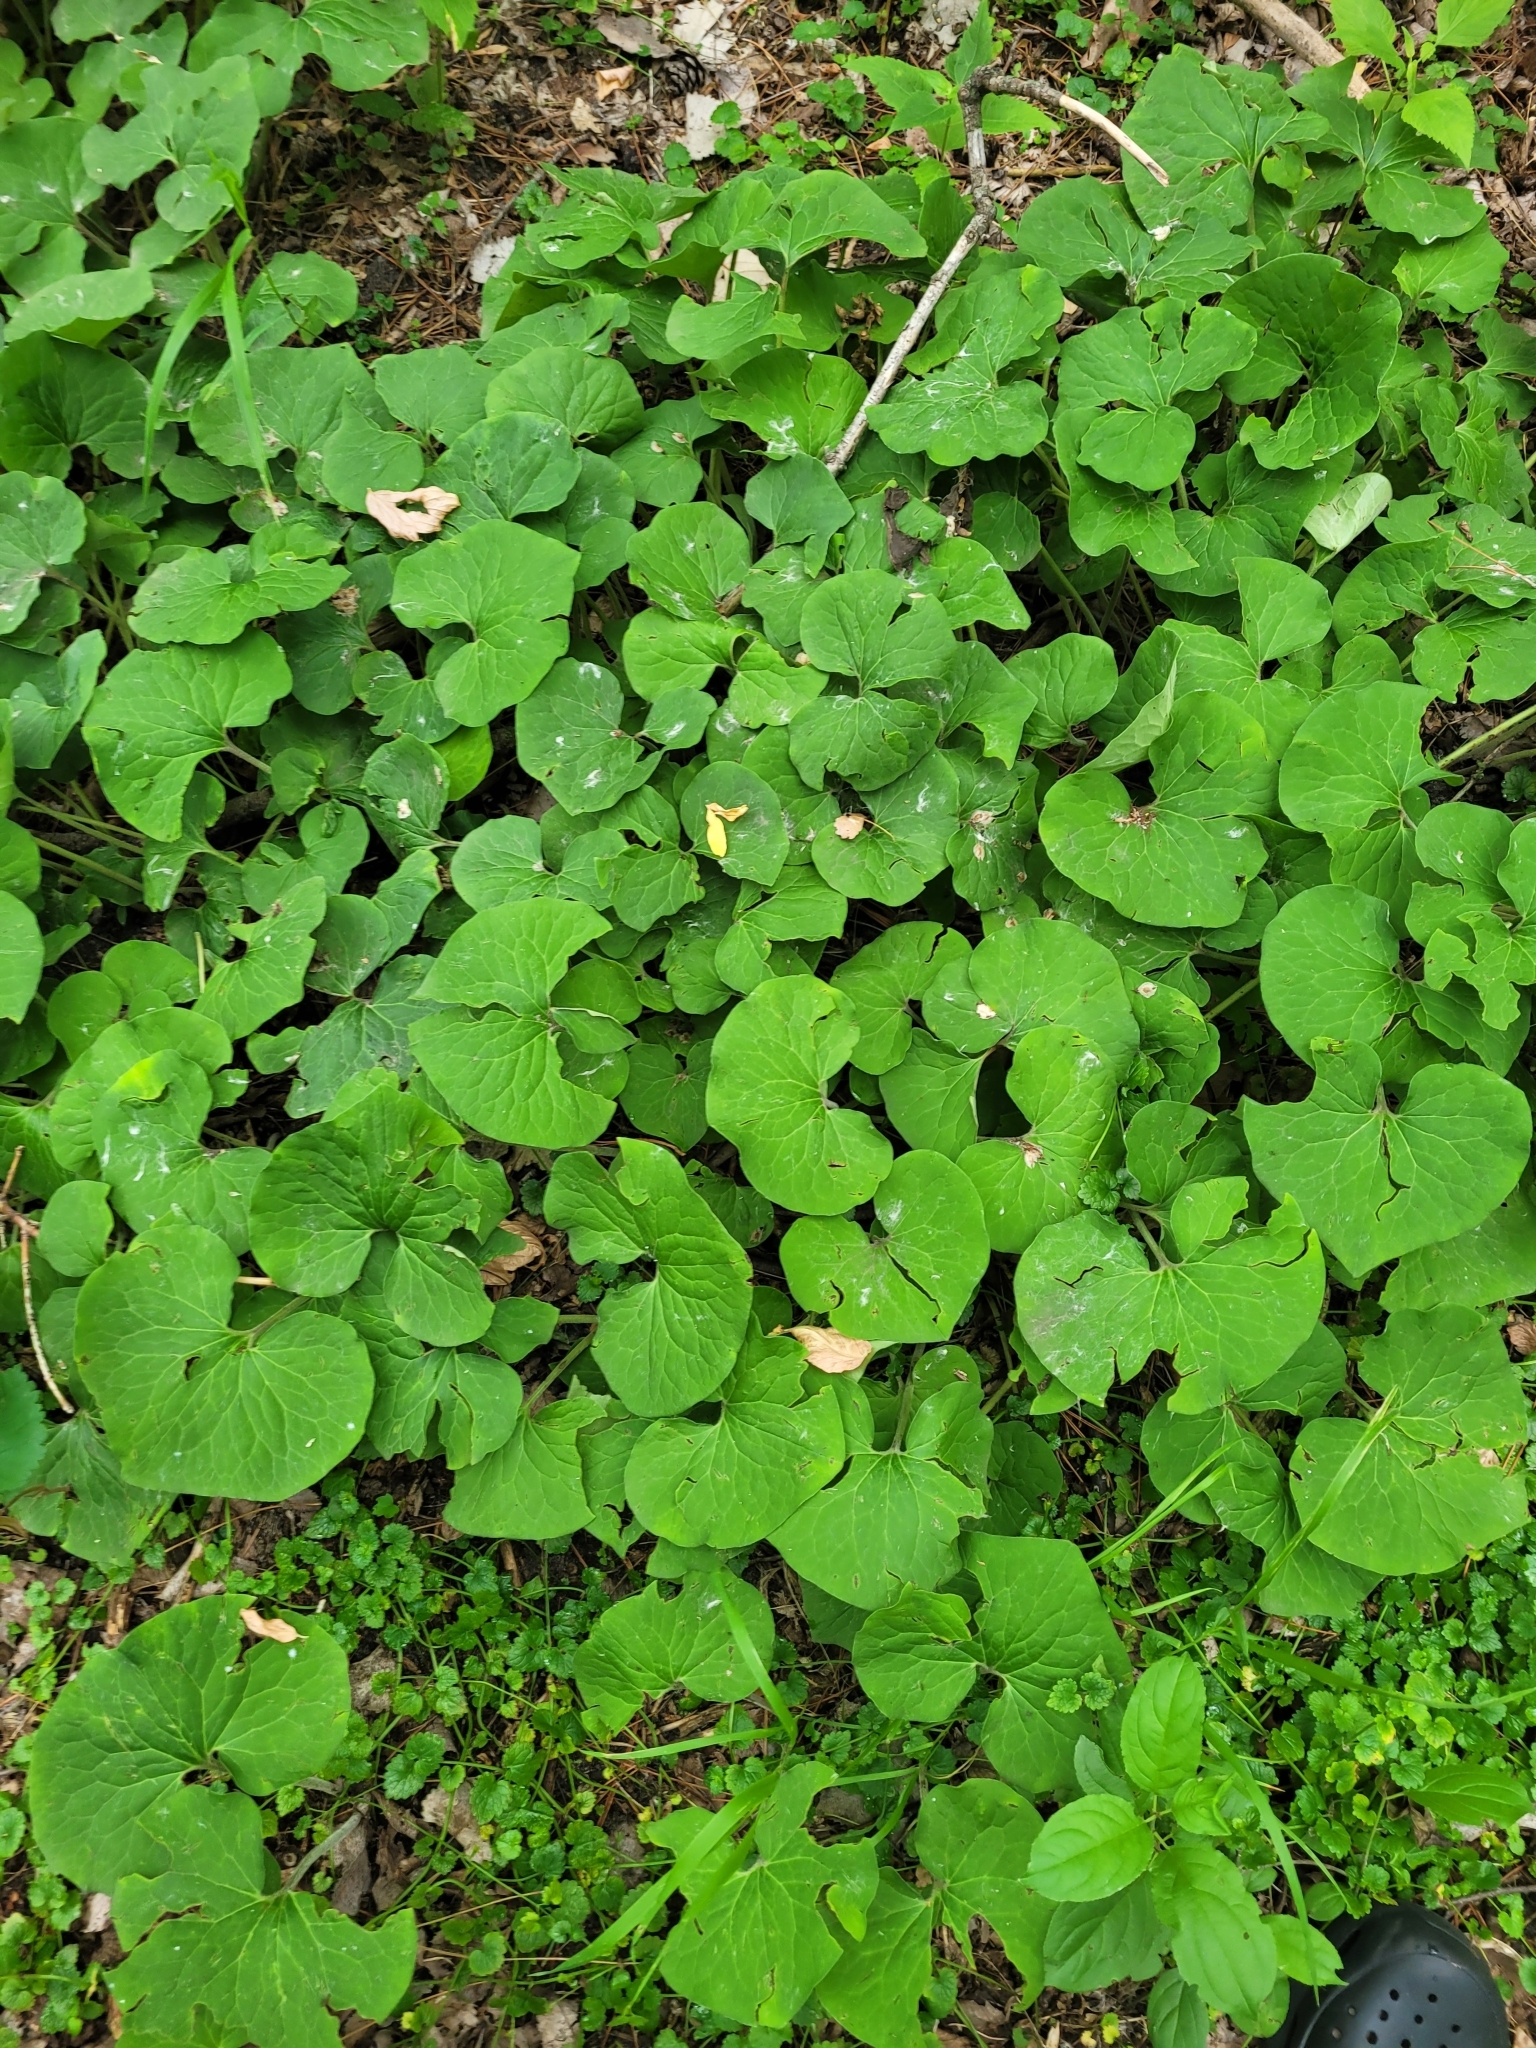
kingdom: Plantae
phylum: Tracheophyta
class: Magnoliopsida
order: Piperales
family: Aristolochiaceae
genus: Asarum
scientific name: Asarum canadense
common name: Wild ginger
